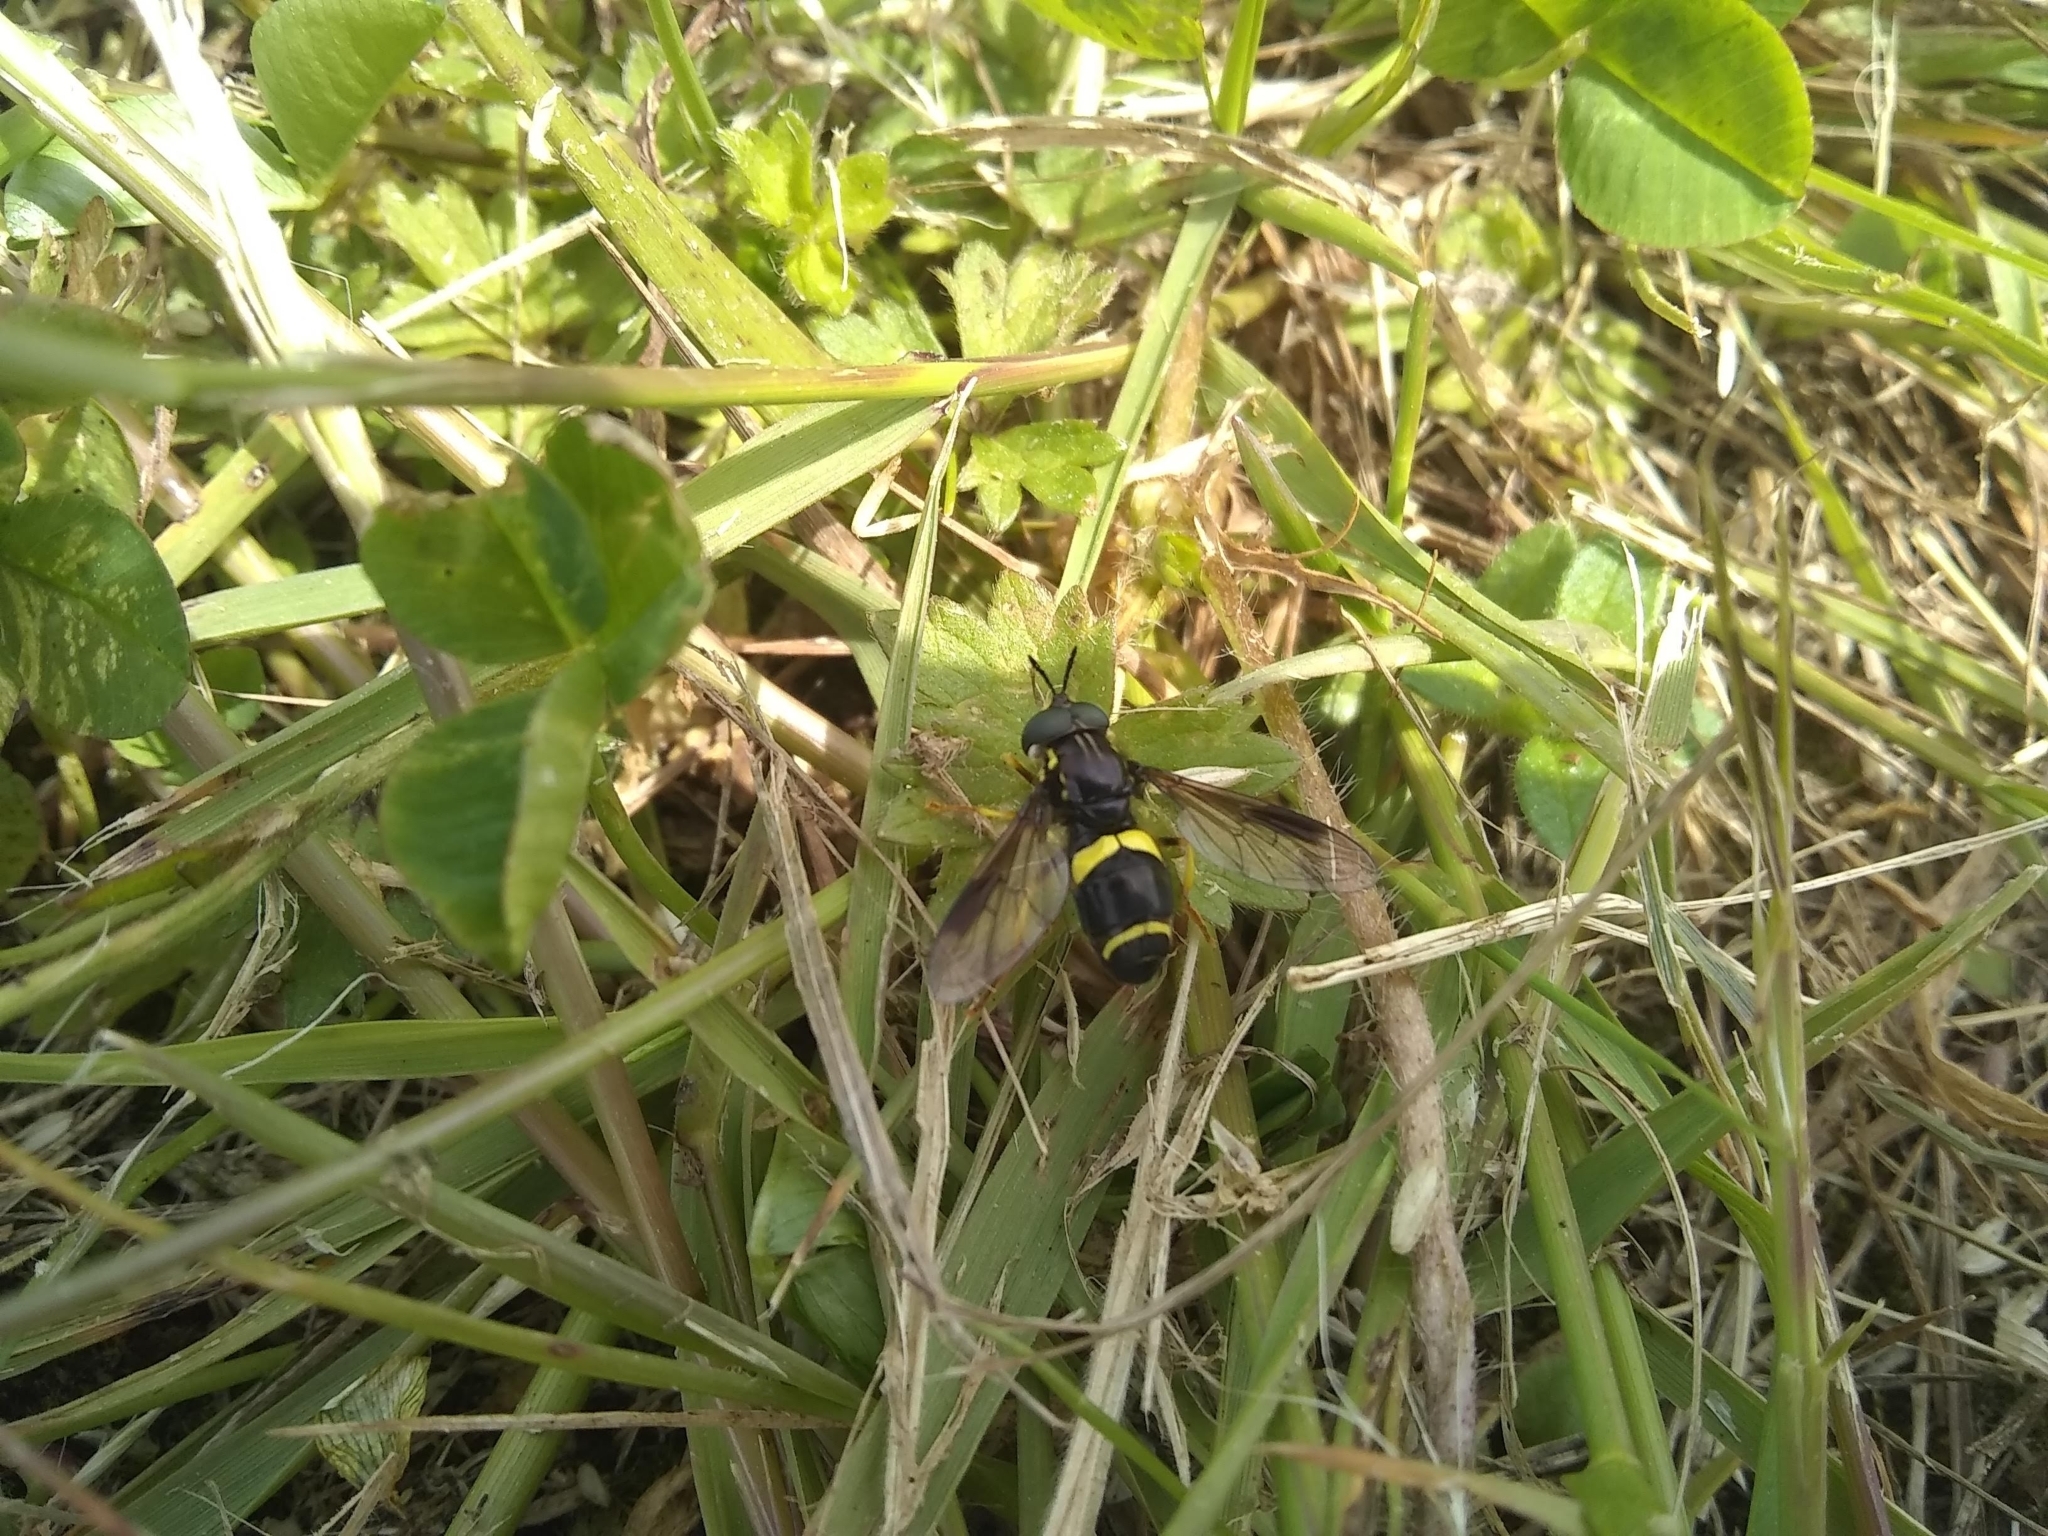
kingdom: Animalia
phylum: Arthropoda
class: Insecta
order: Diptera
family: Syrphidae
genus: Chrysotoxum
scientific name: Chrysotoxum bicincta
